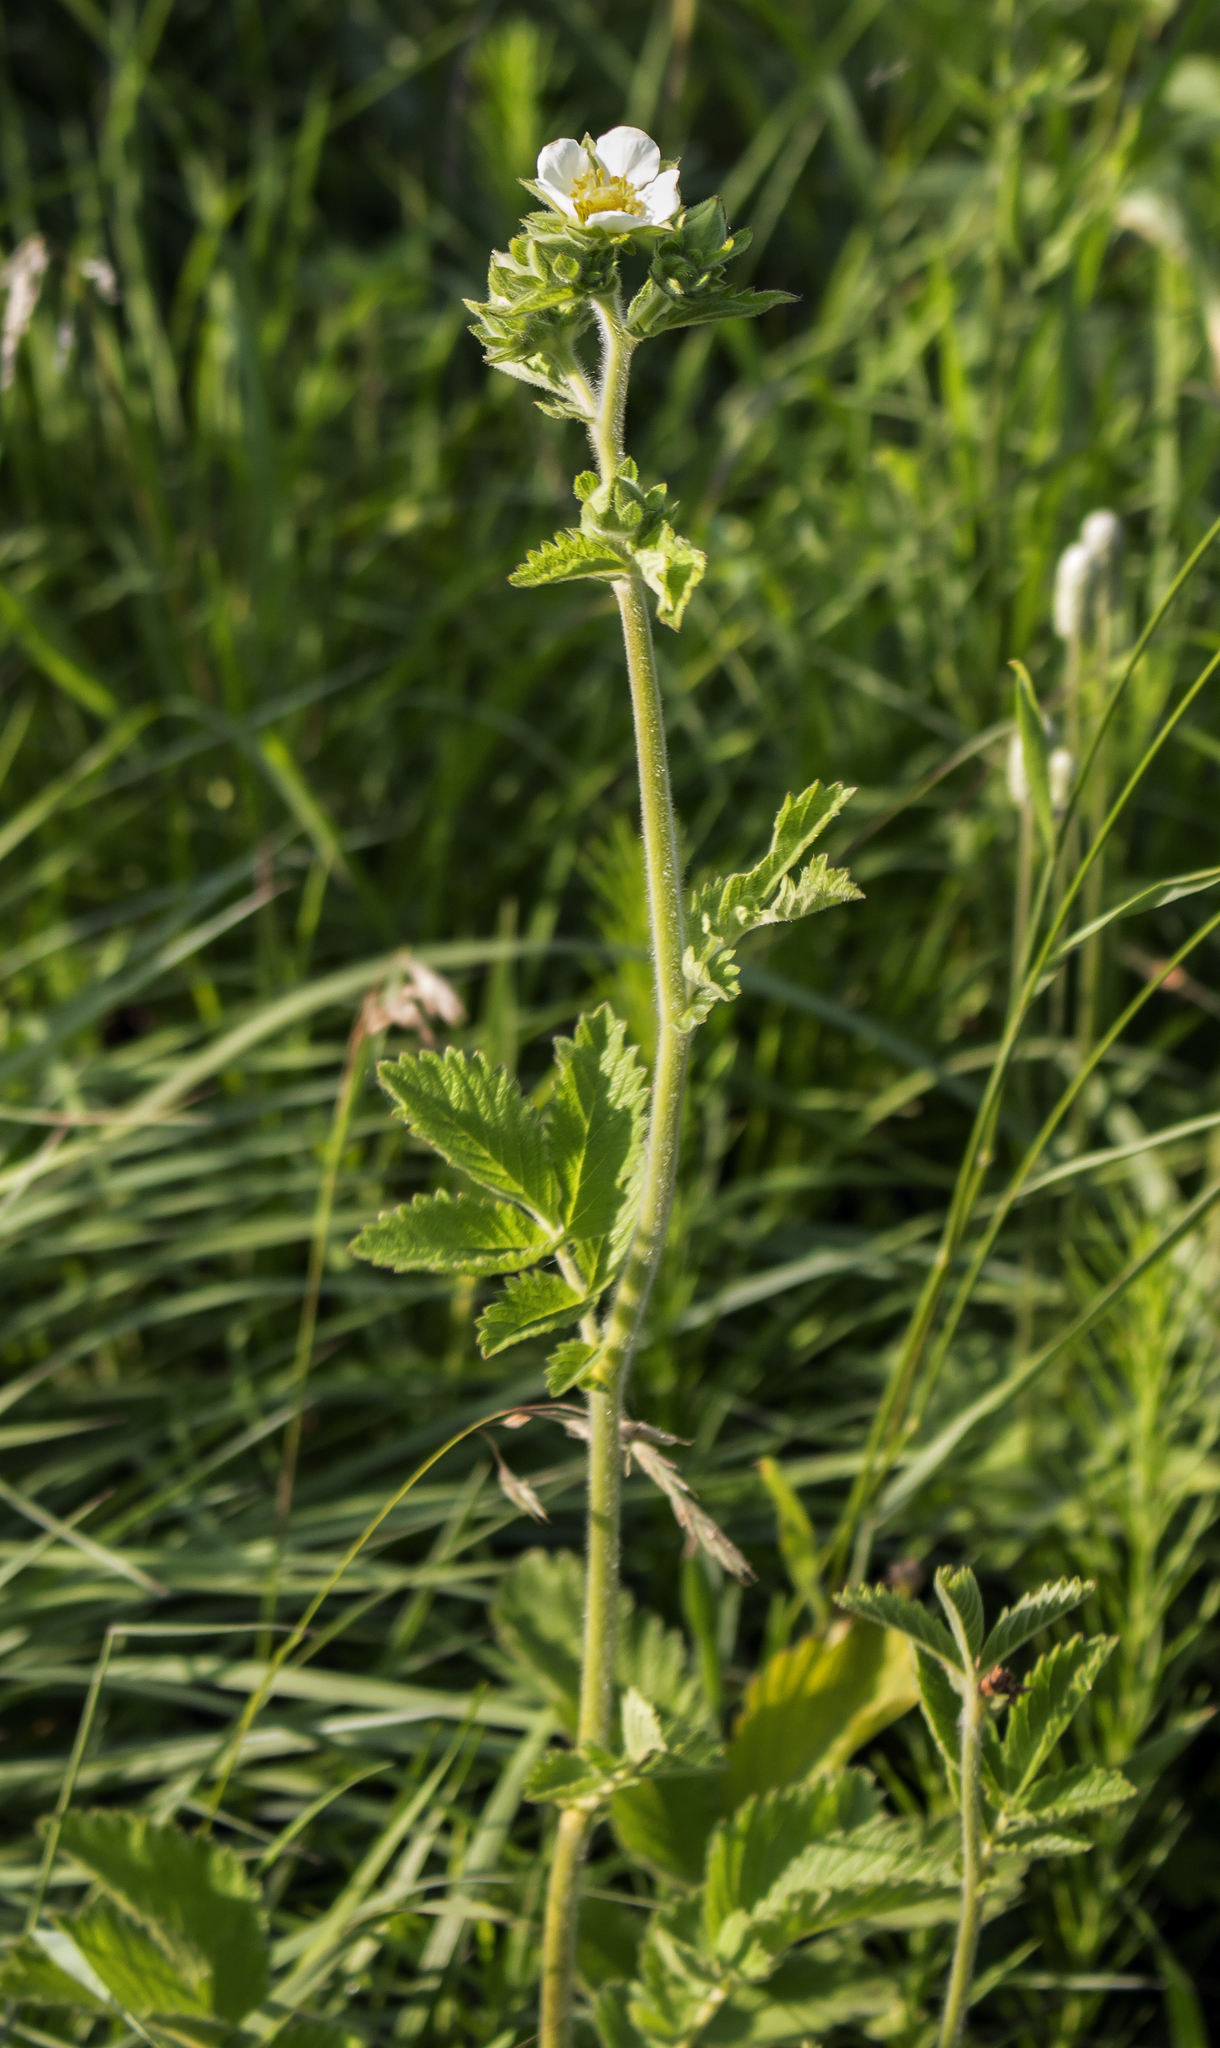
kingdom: Plantae
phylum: Tracheophyta
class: Magnoliopsida
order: Rosales
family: Rosaceae
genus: Drymocallis
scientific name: Drymocallis arguta
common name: Tall cinquefoil
